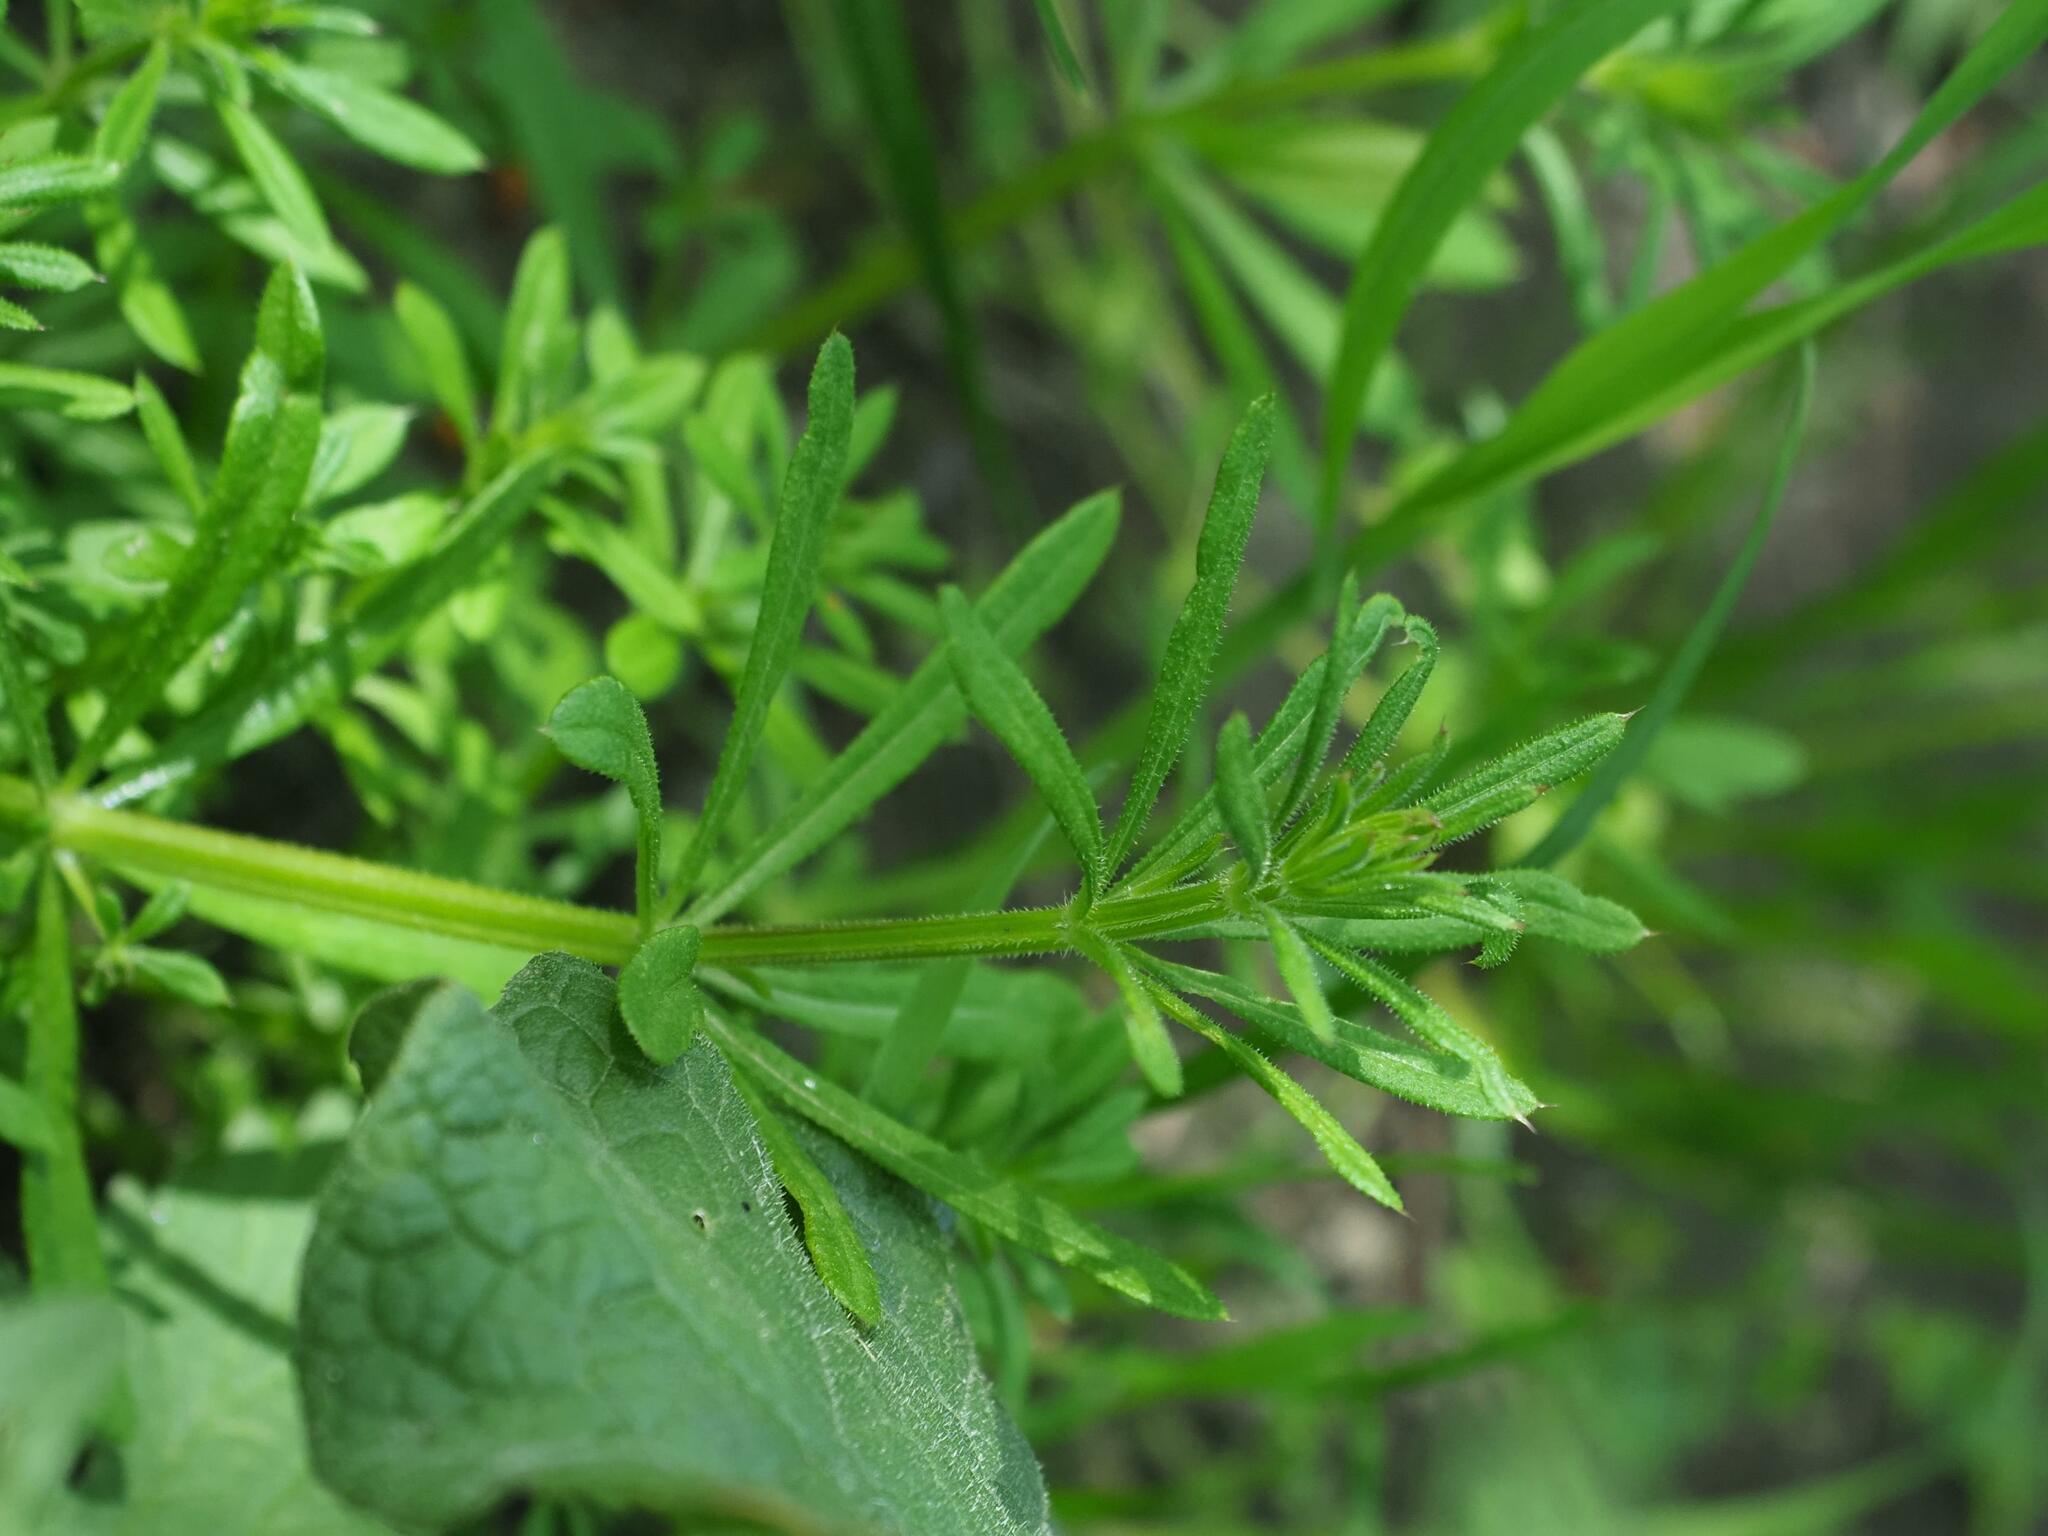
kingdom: Plantae
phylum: Tracheophyta
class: Magnoliopsida
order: Gentianales
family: Rubiaceae
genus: Galium
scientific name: Galium aparine
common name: Cleavers
